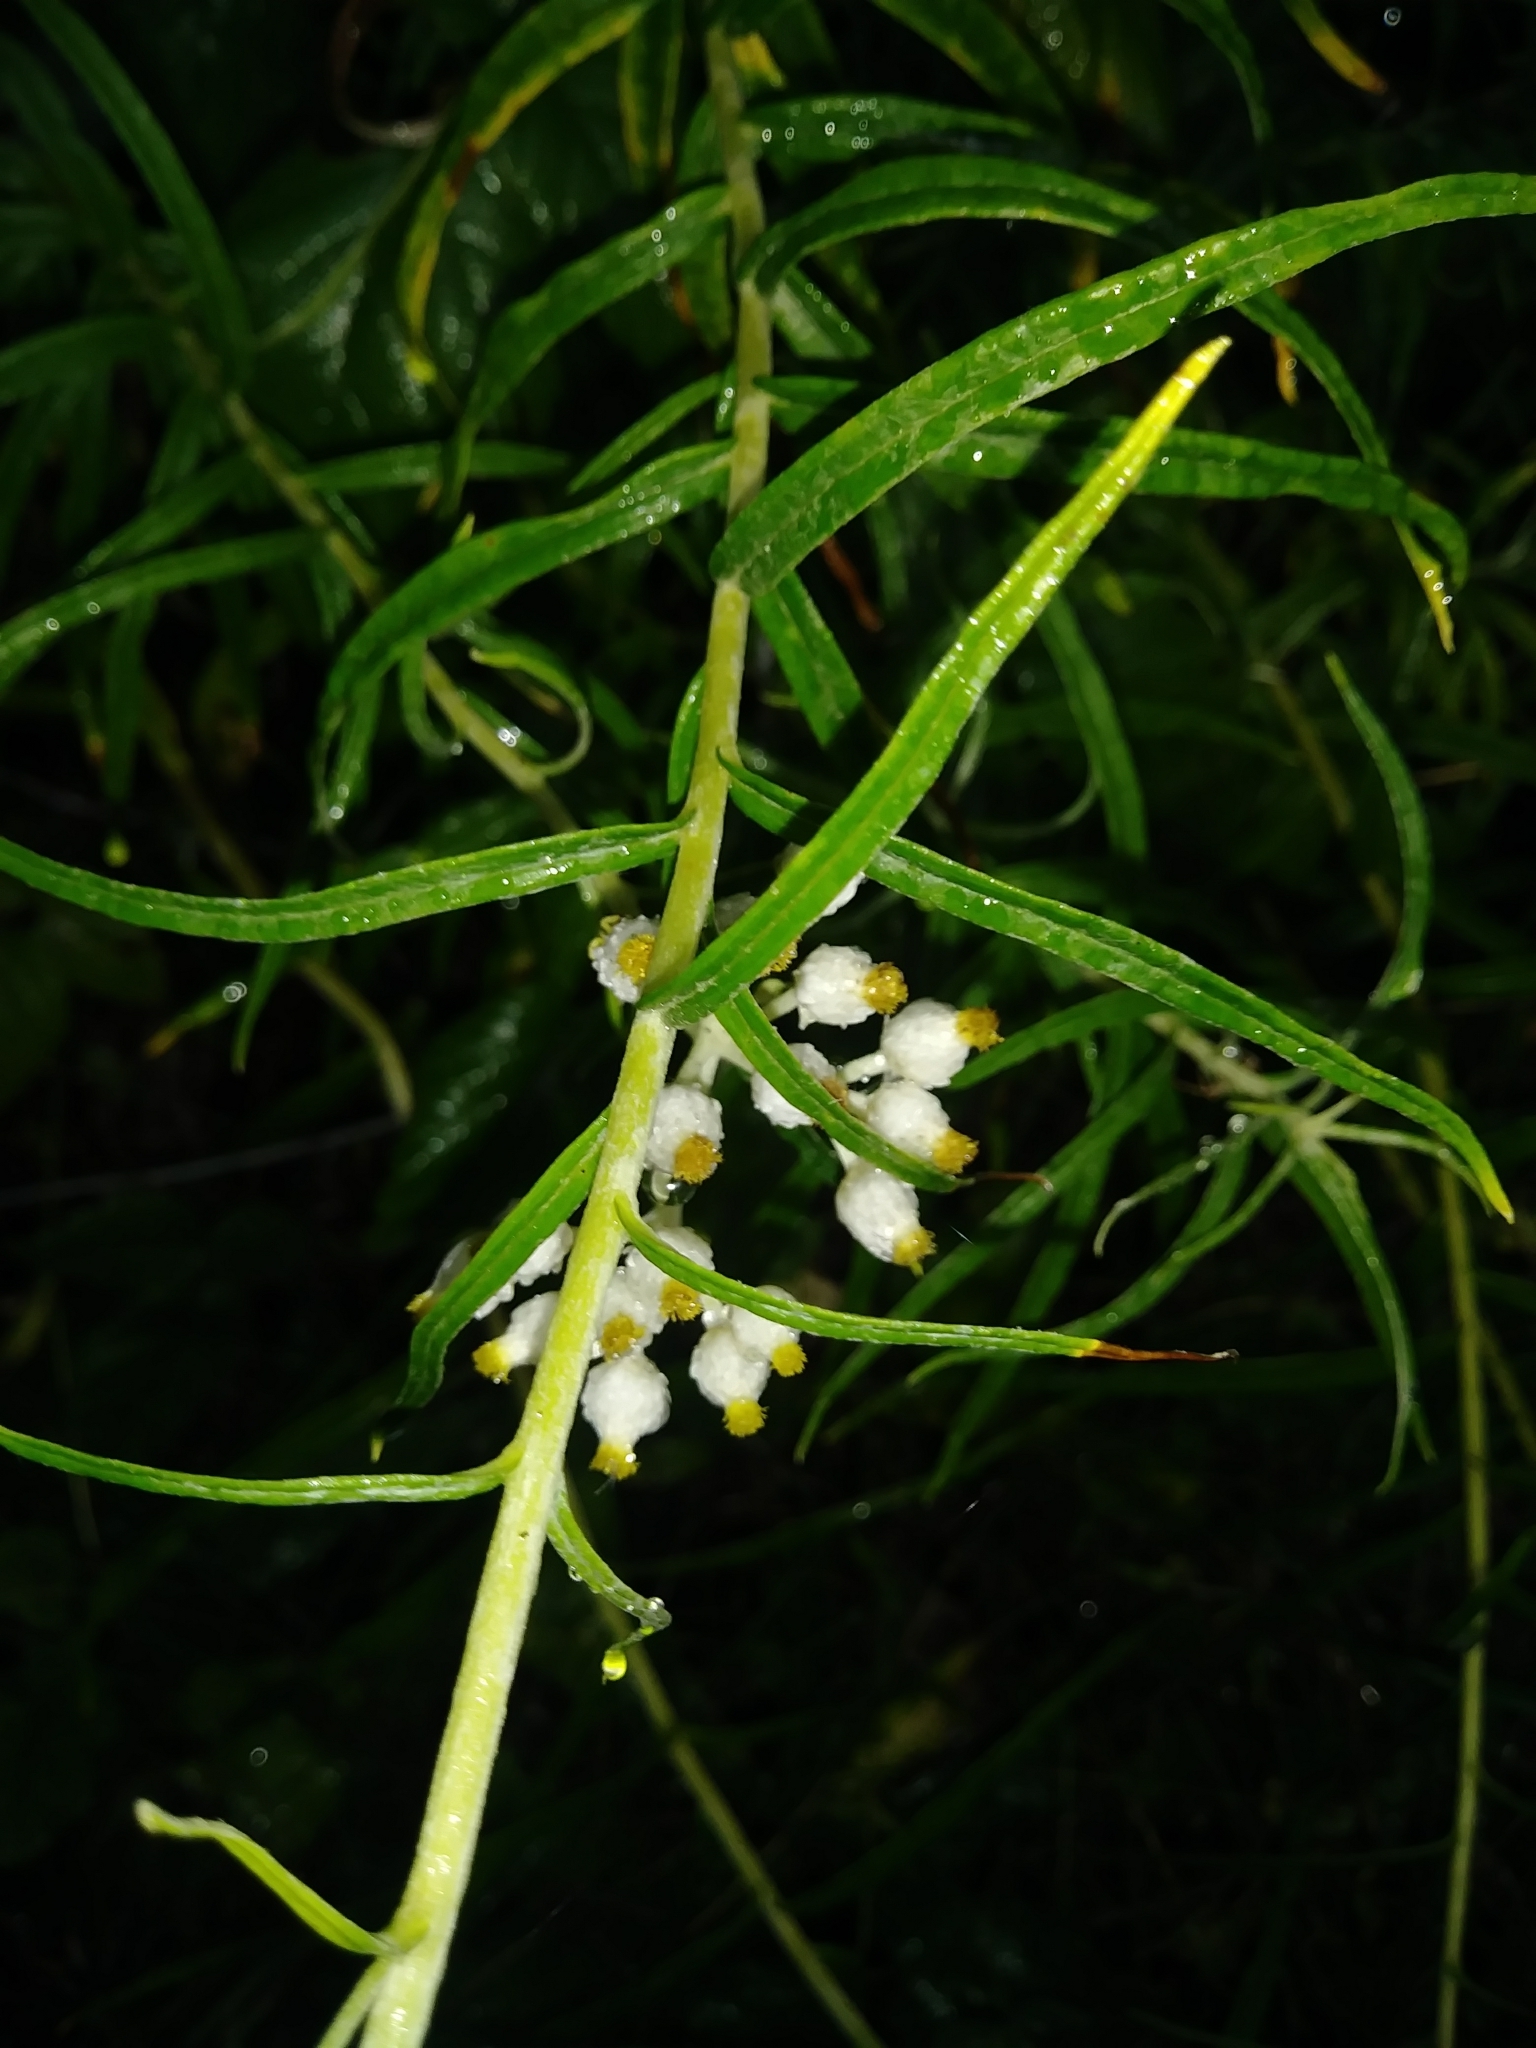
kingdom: Plantae
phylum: Tracheophyta
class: Magnoliopsida
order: Asterales
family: Asteraceae
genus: Anaphalis
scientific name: Anaphalis margaritacea
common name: Pearly everlasting
